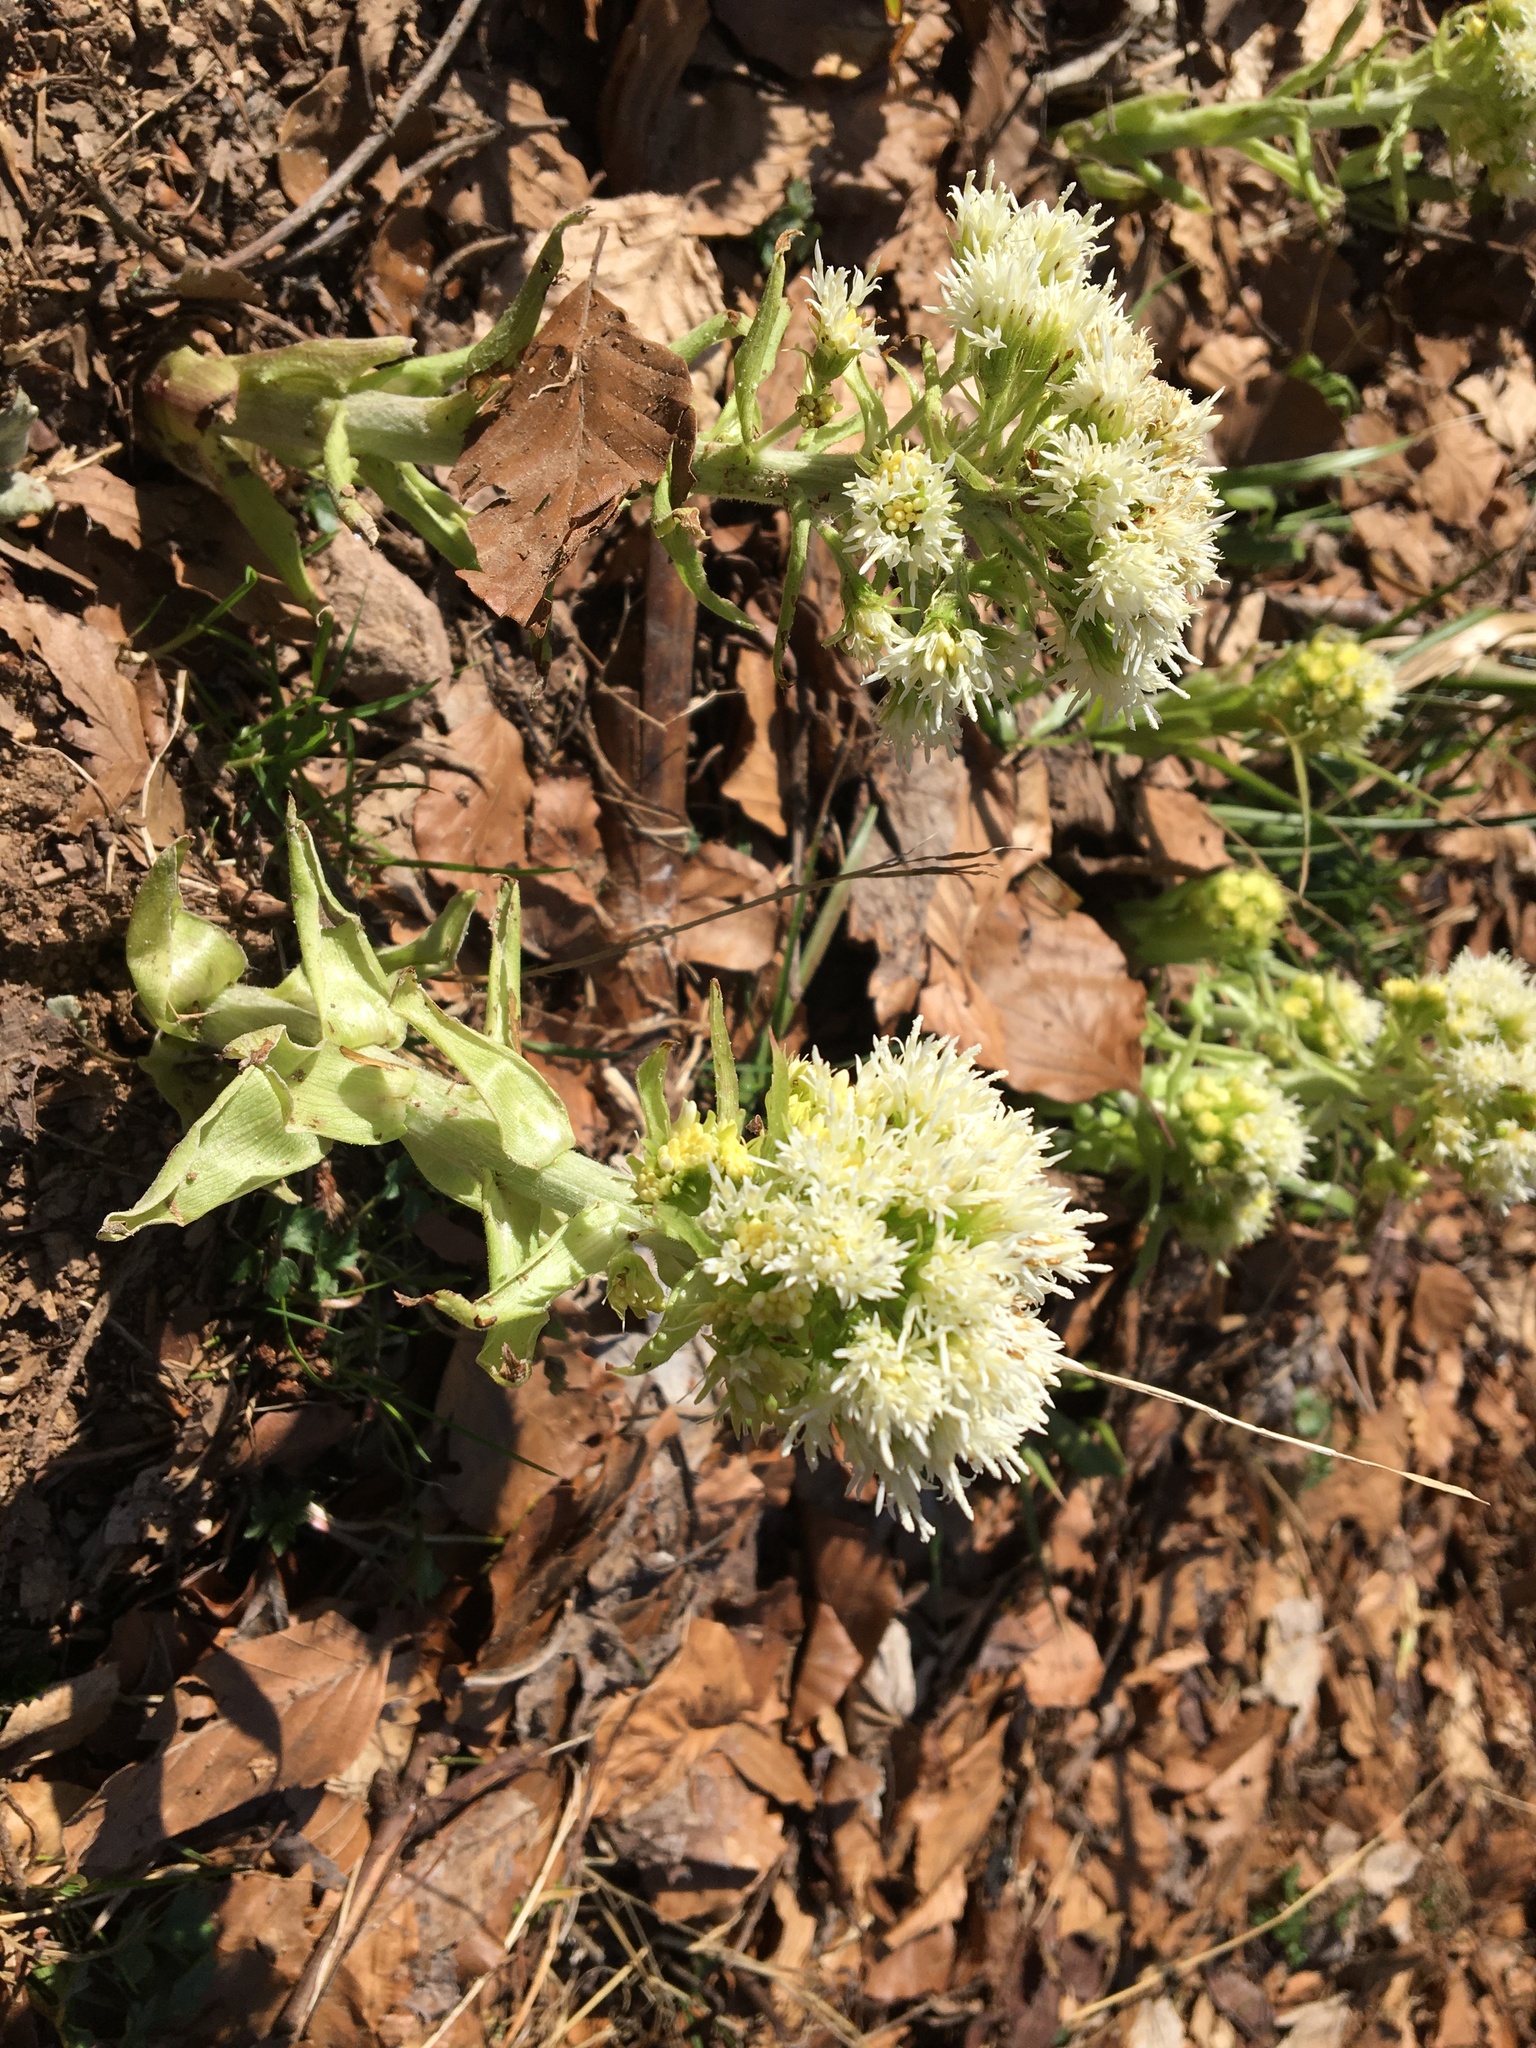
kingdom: Plantae
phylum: Tracheophyta
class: Magnoliopsida
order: Asterales
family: Asteraceae
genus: Petasites
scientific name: Petasites albus
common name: White butterbur
